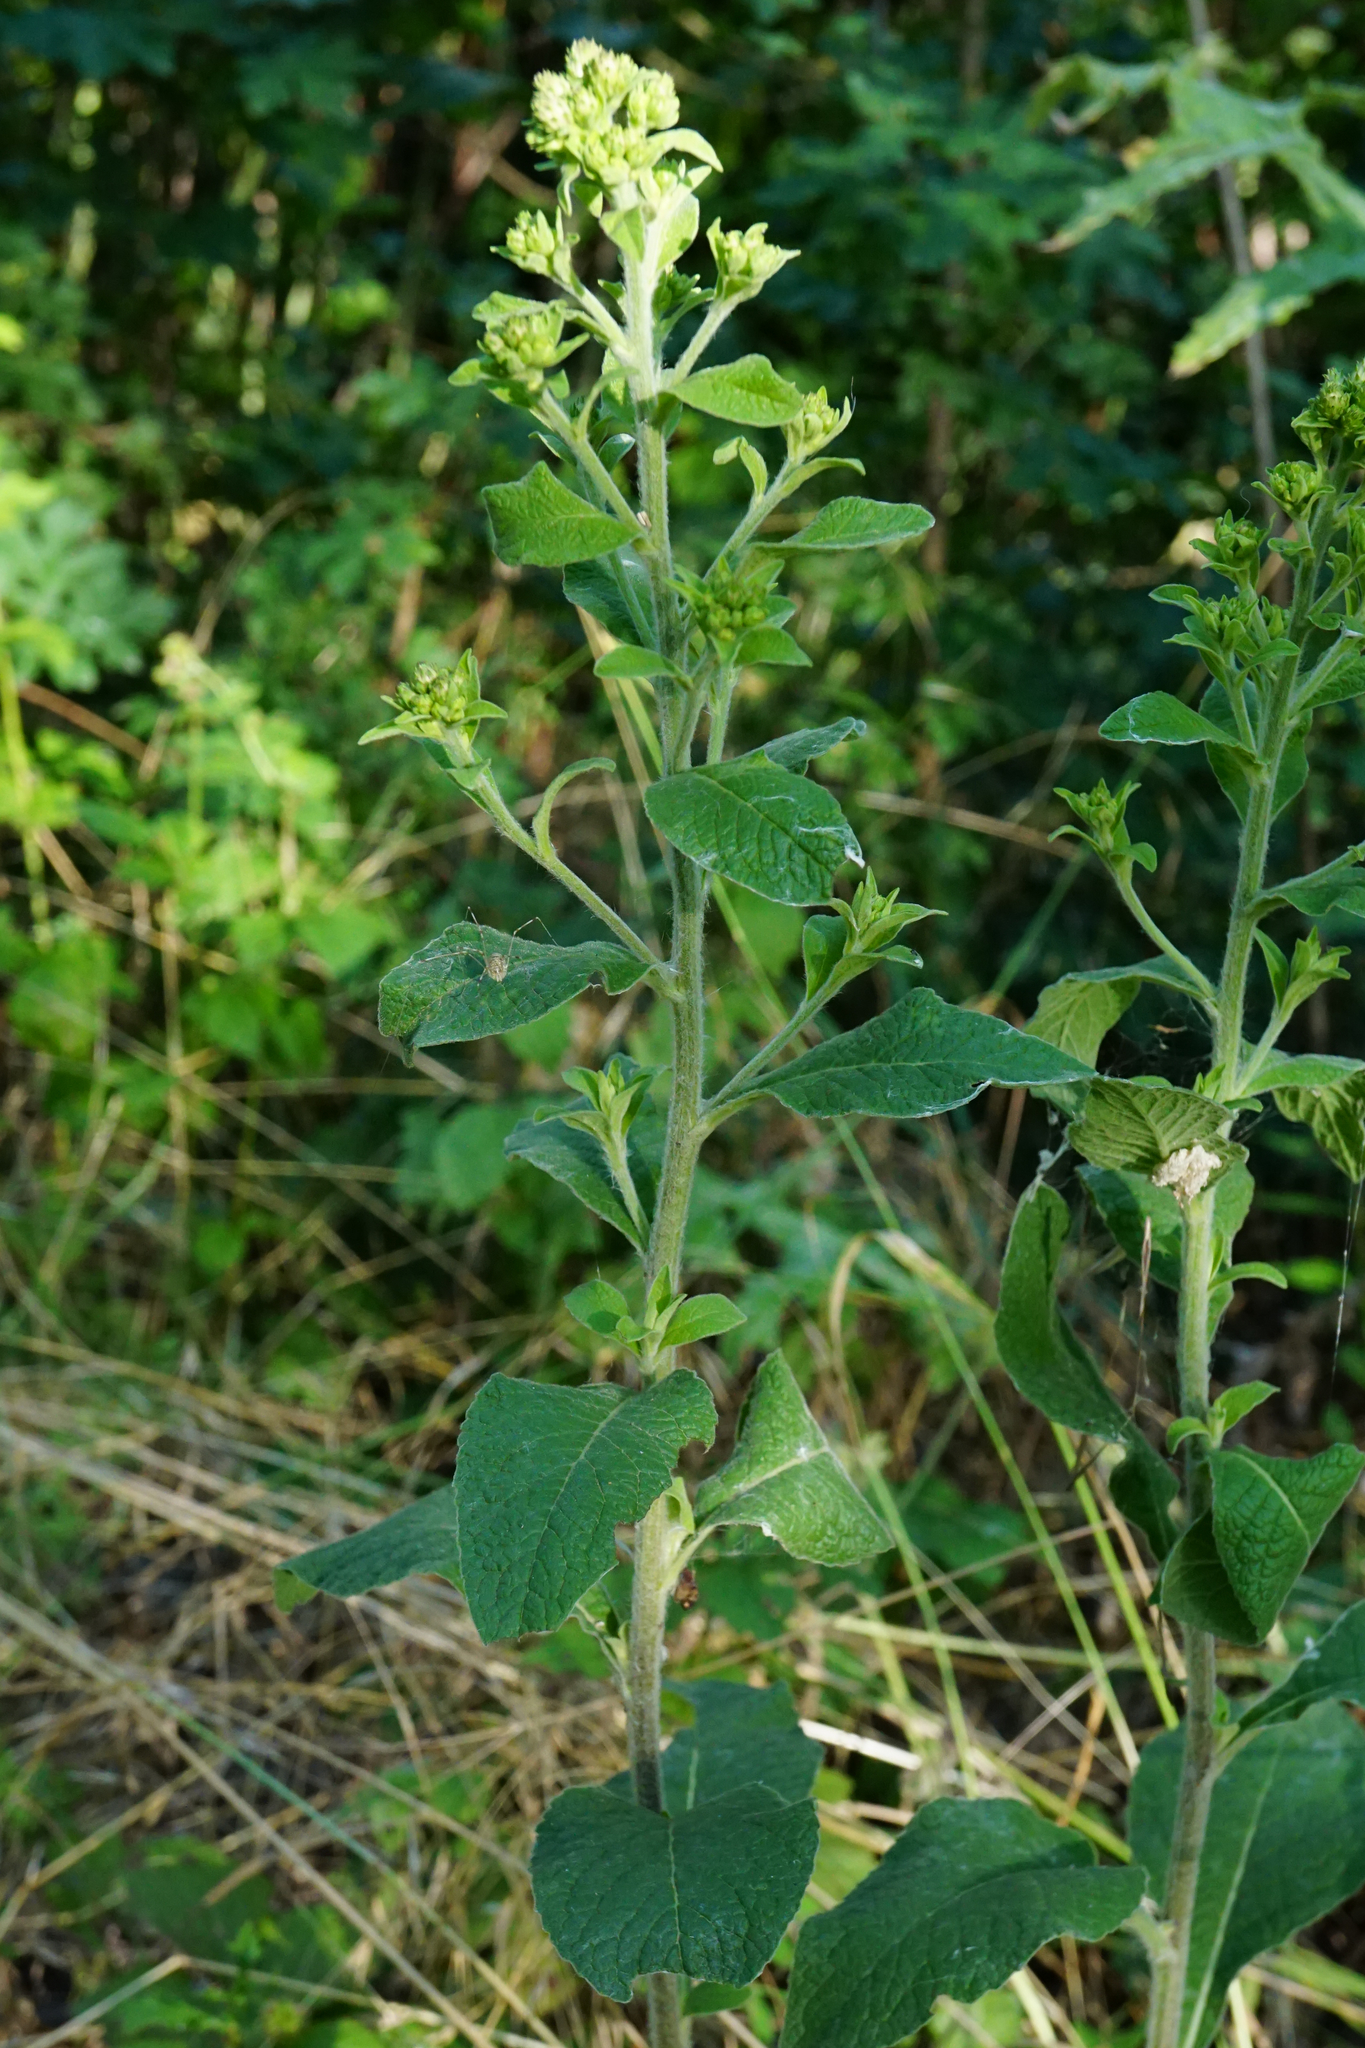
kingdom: Plantae
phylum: Tracheophyta
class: Magnoliopsida
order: Asterales
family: Asteraceae
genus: Pentanema
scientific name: Pentanema squarrosum
